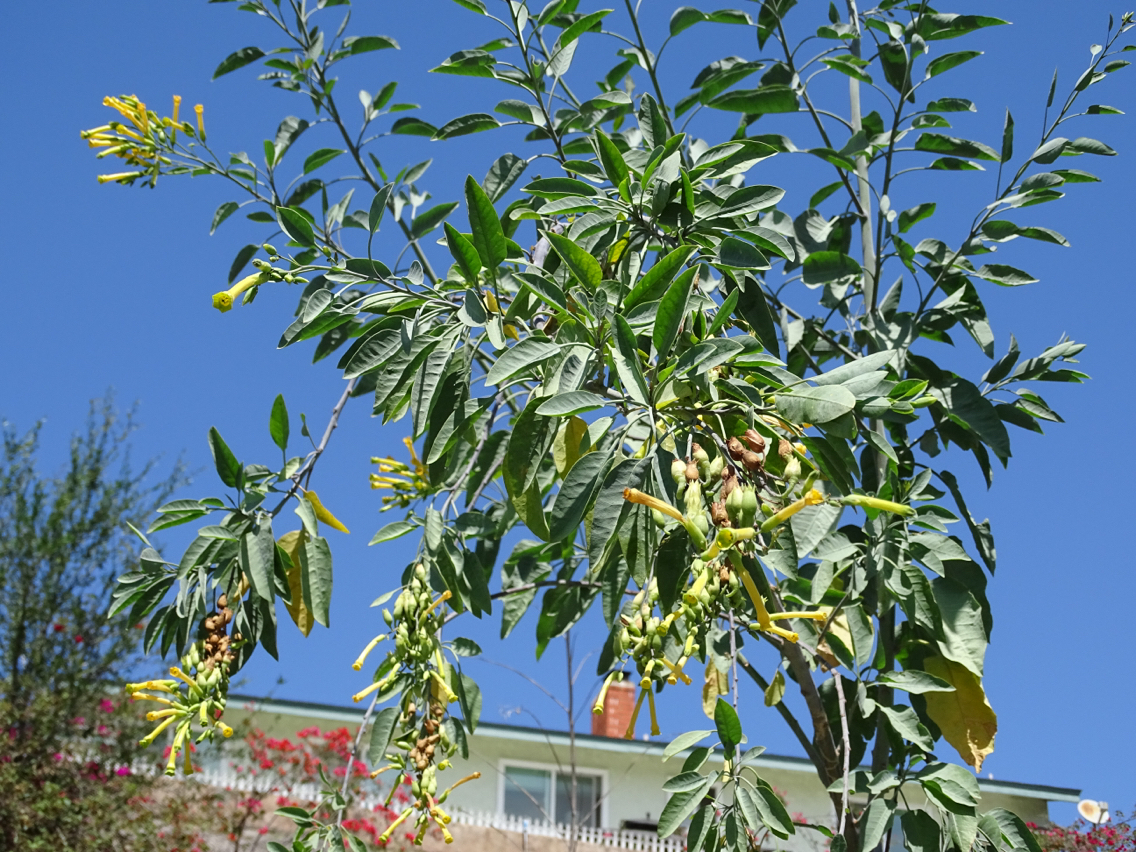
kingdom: Plantae
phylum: Tracheophyta
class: Magnoliopsida
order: Solanales
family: Solanaceae
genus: Nicotiana
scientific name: Nicotiana glauca
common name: Tree tobacco
